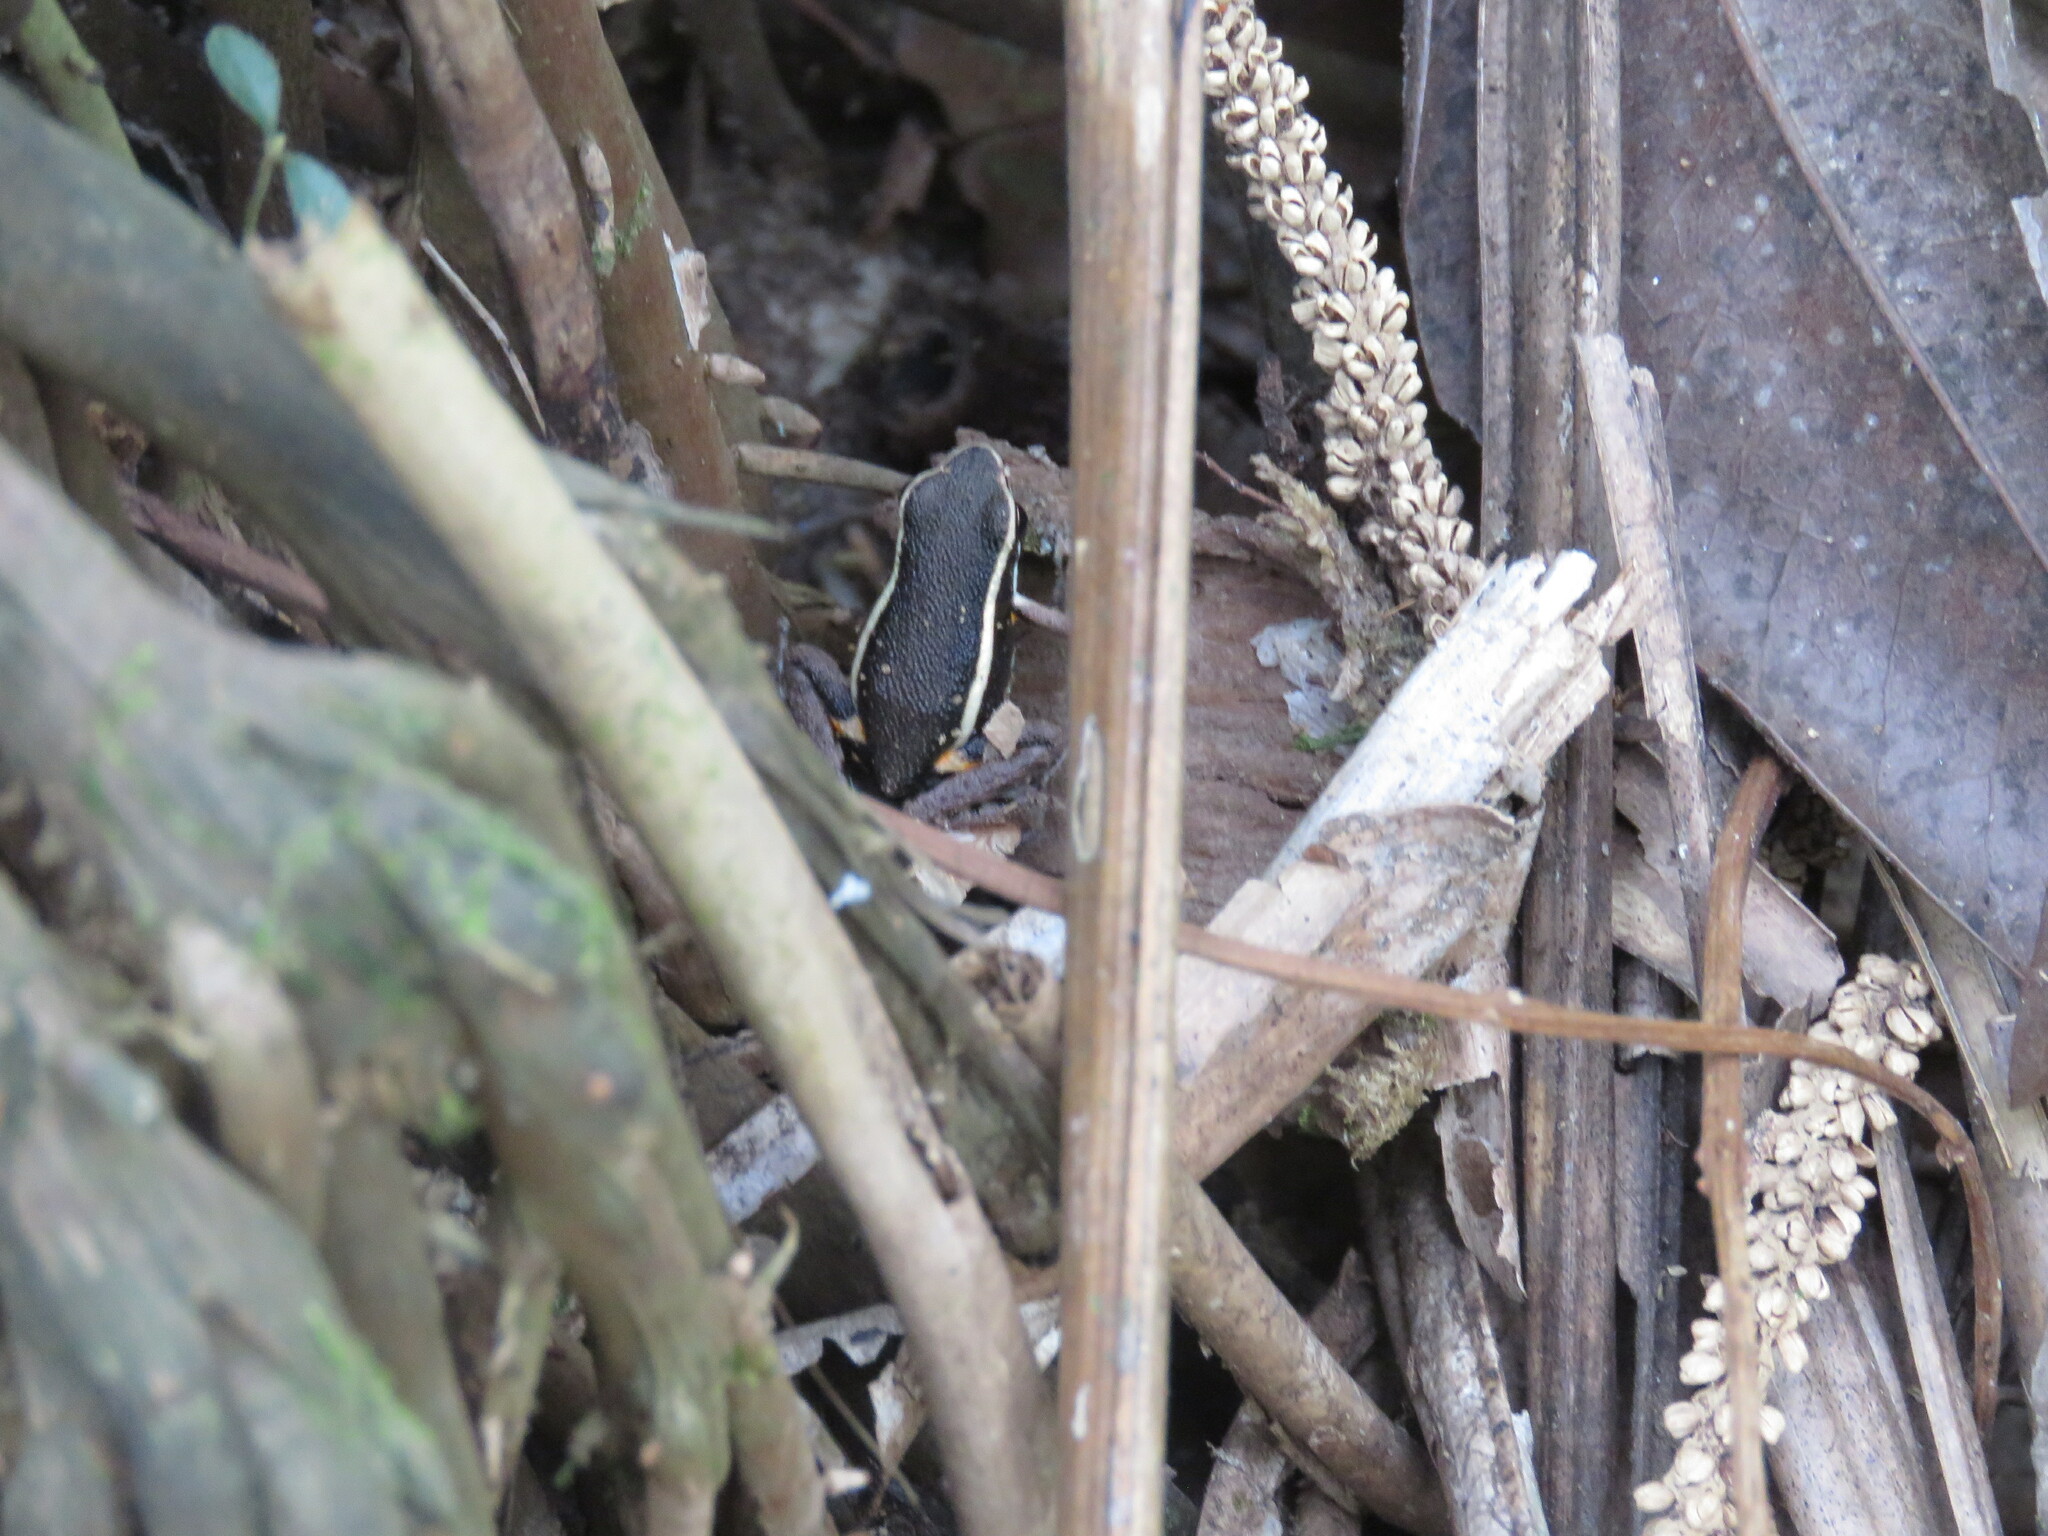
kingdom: Animalia
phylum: Chordata
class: Amphibia
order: Anura
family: Dendrobatidae
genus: Ameerega
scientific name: Ameerega picta
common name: Spot-legged poison frog
